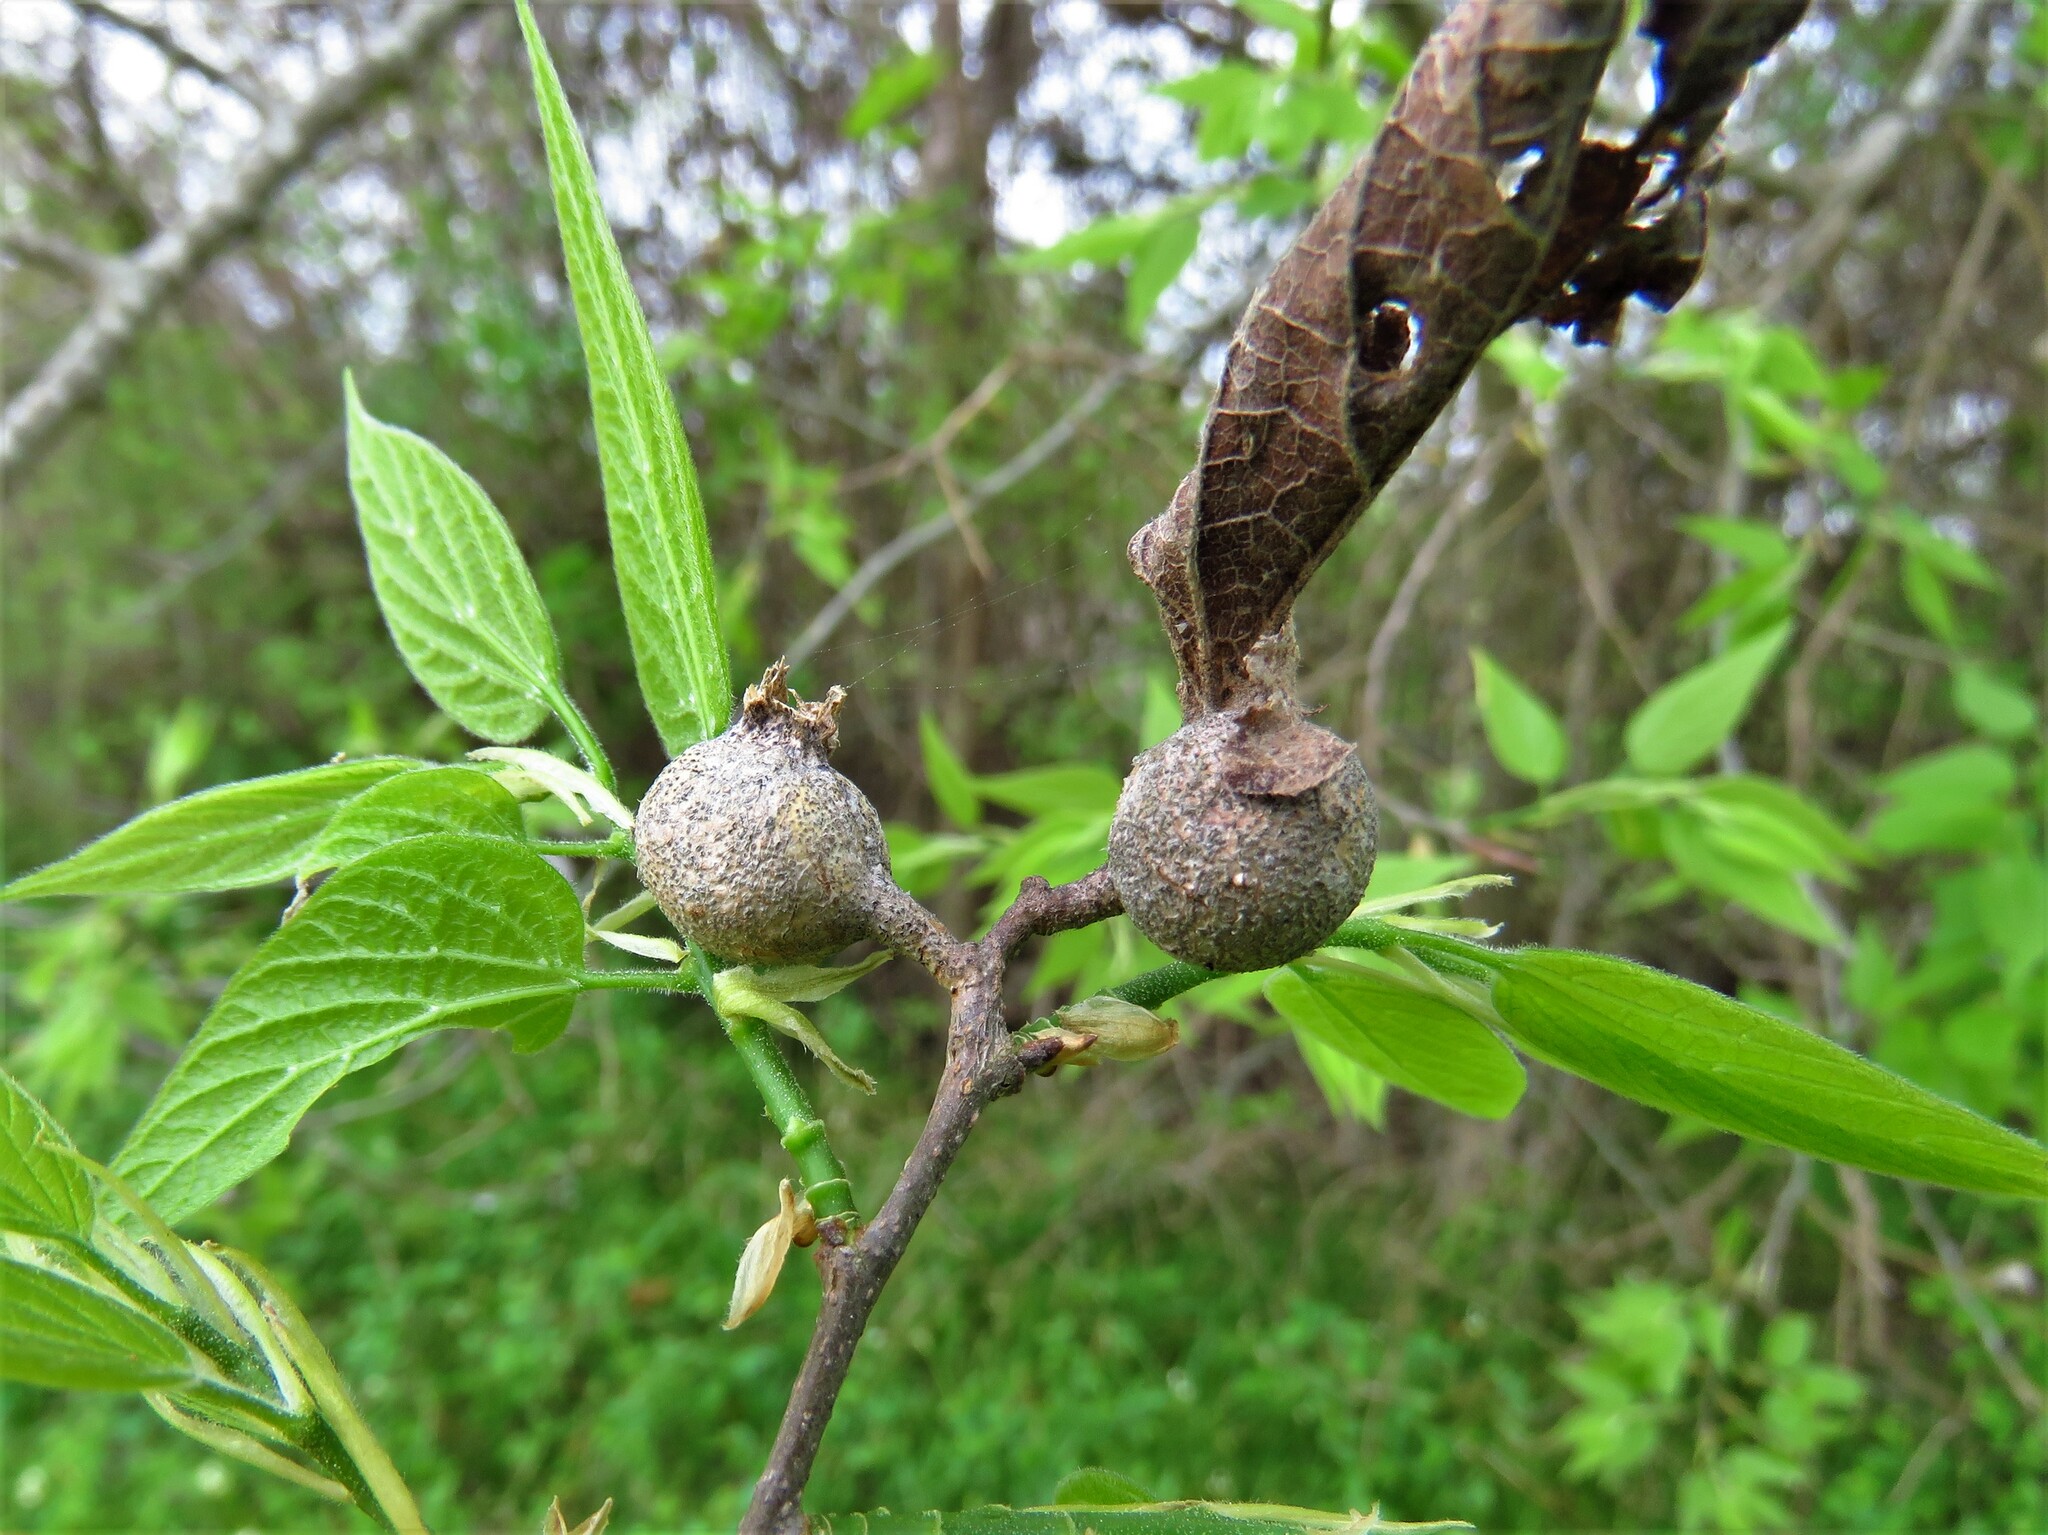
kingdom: Animalia
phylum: Arthropoda
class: Insecta
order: Hemiptera
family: Aphalaridae
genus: Pachypsylla
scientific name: Pachypsylla venusta
